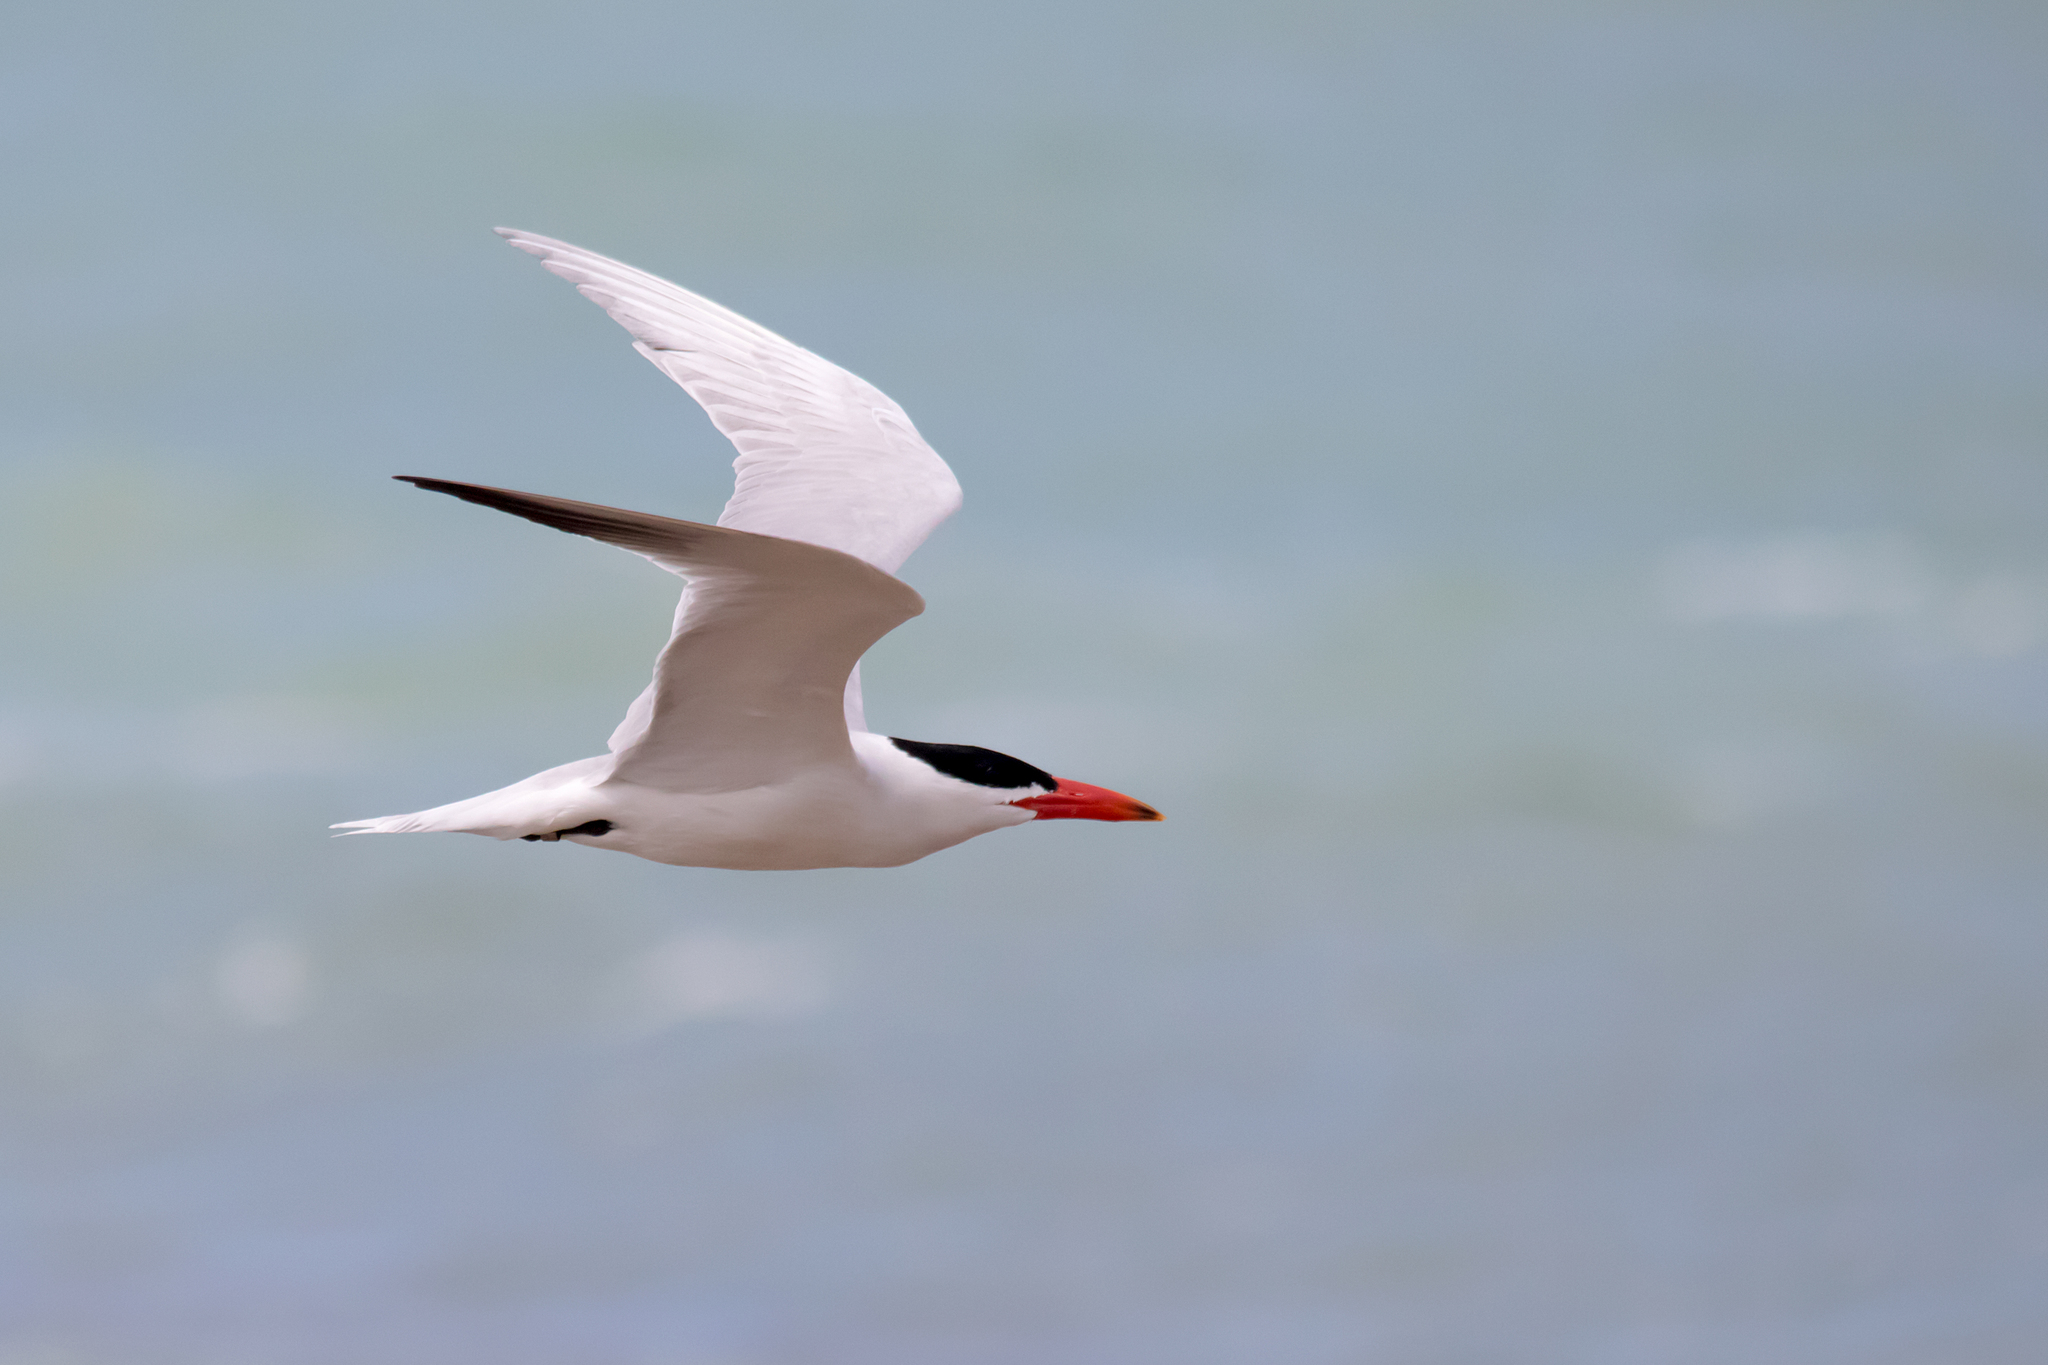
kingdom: Animalia
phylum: Chordata
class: Aves
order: Charadriiformes
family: Laridae
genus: Hydroprogne
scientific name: Hydroprogne caspia
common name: Caspian tern
